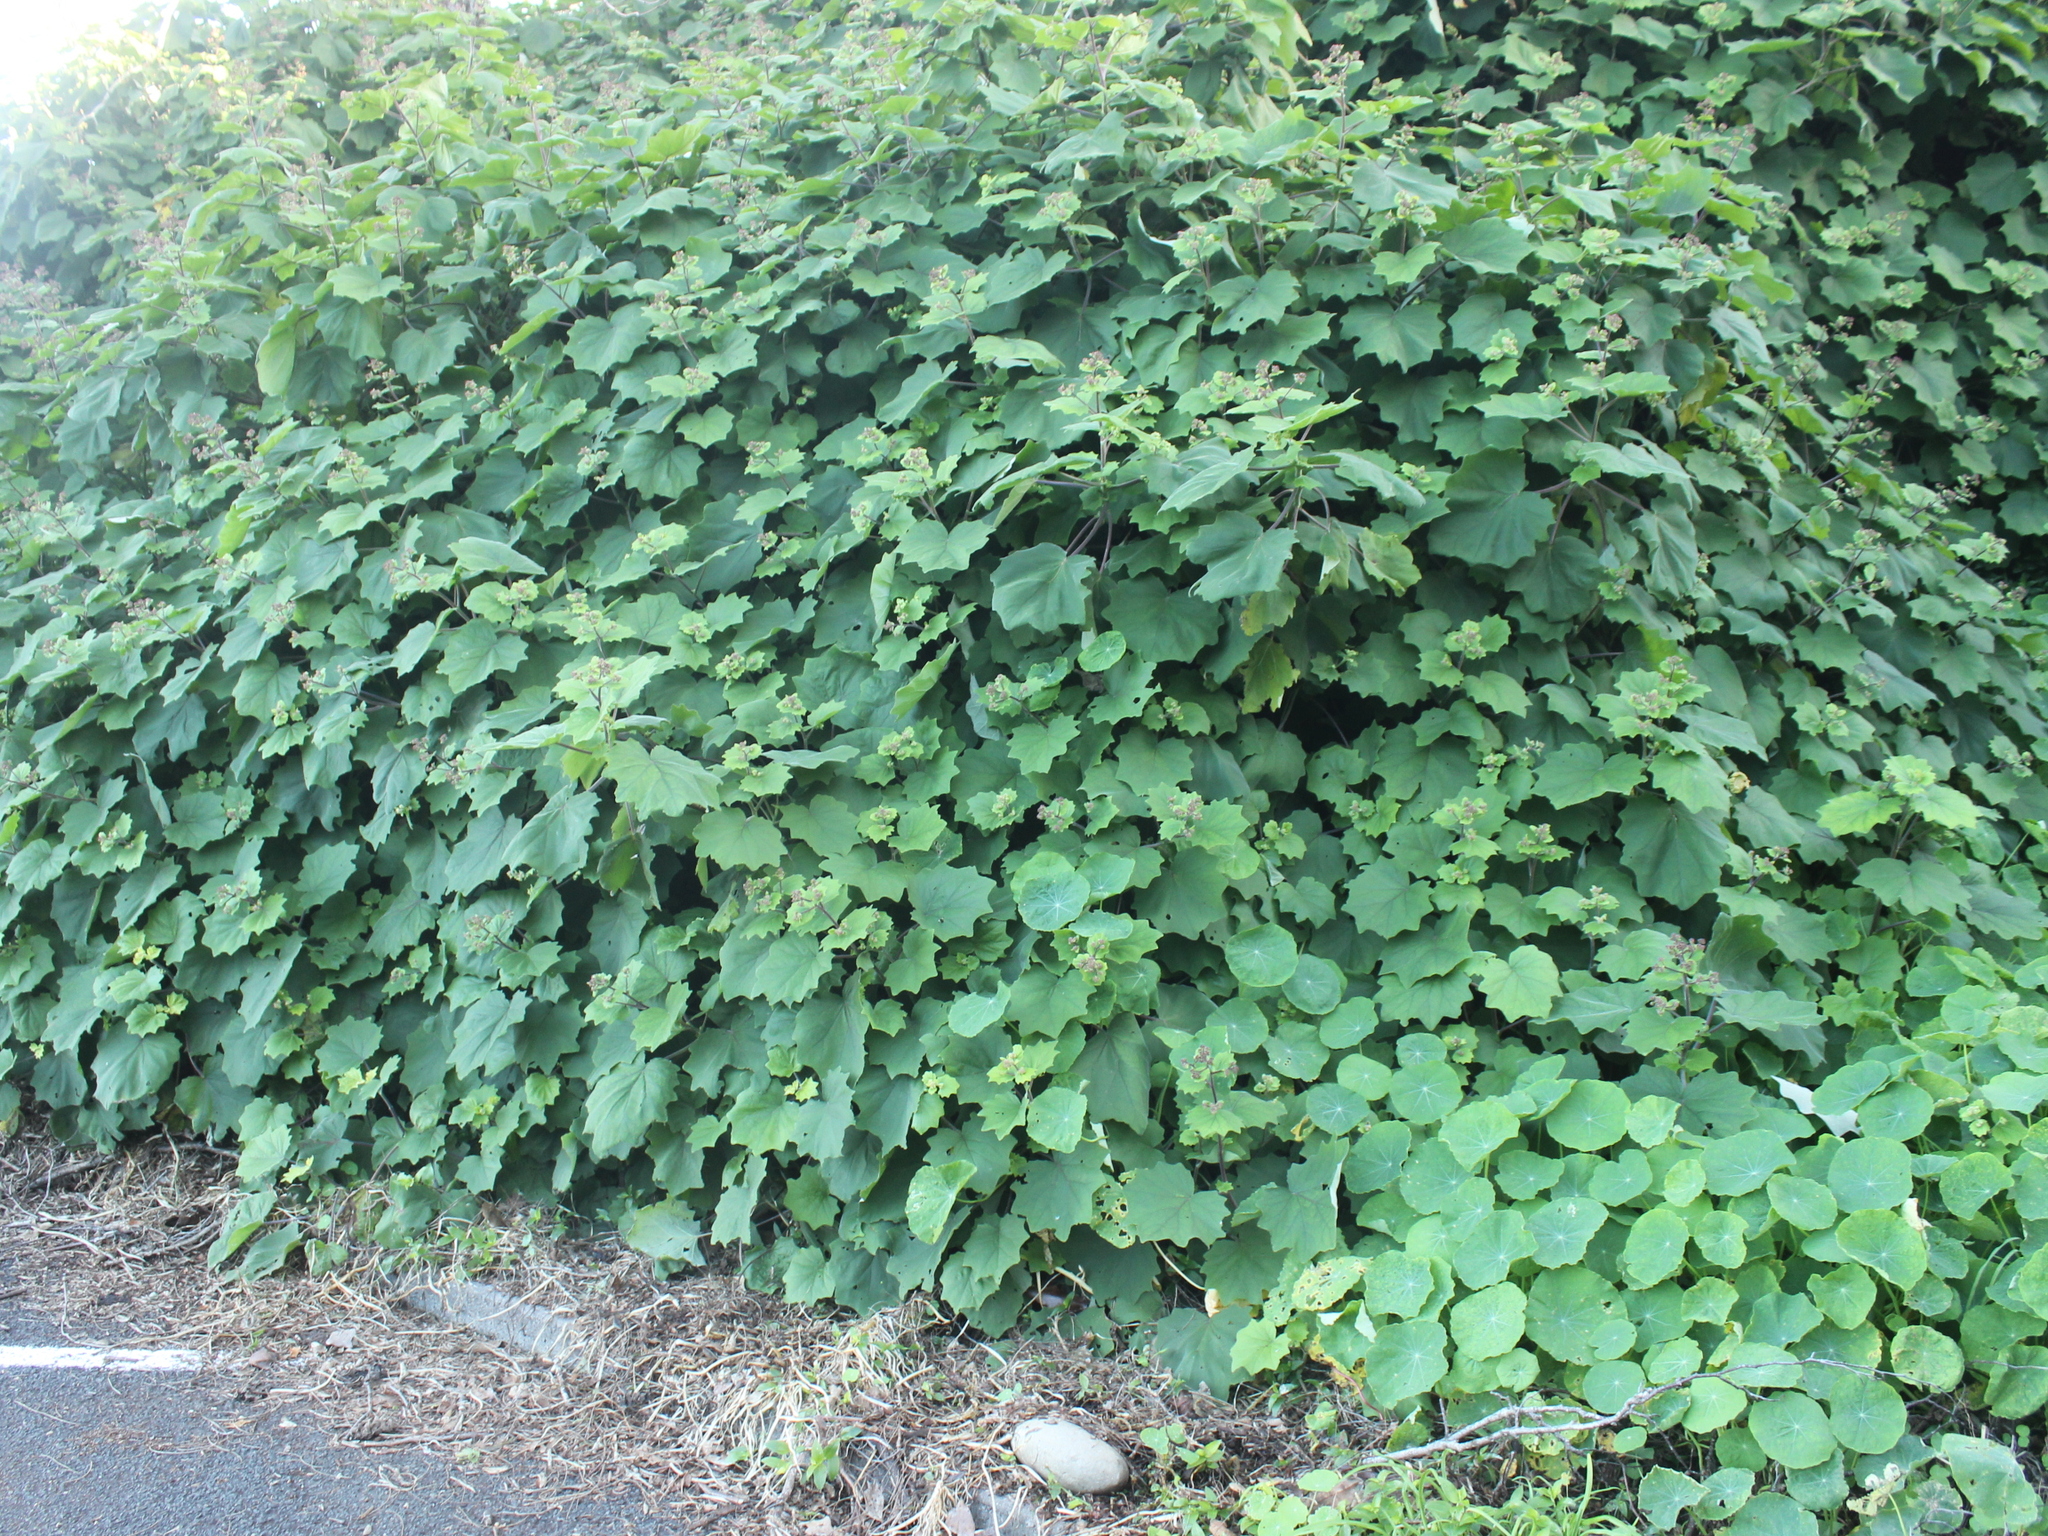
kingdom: Plantae
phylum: Tracheophyta
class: Magnoliopsida
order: Asterales
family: Asteraceae
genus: Roldana
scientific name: Roldana petasitis
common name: California-geranium
